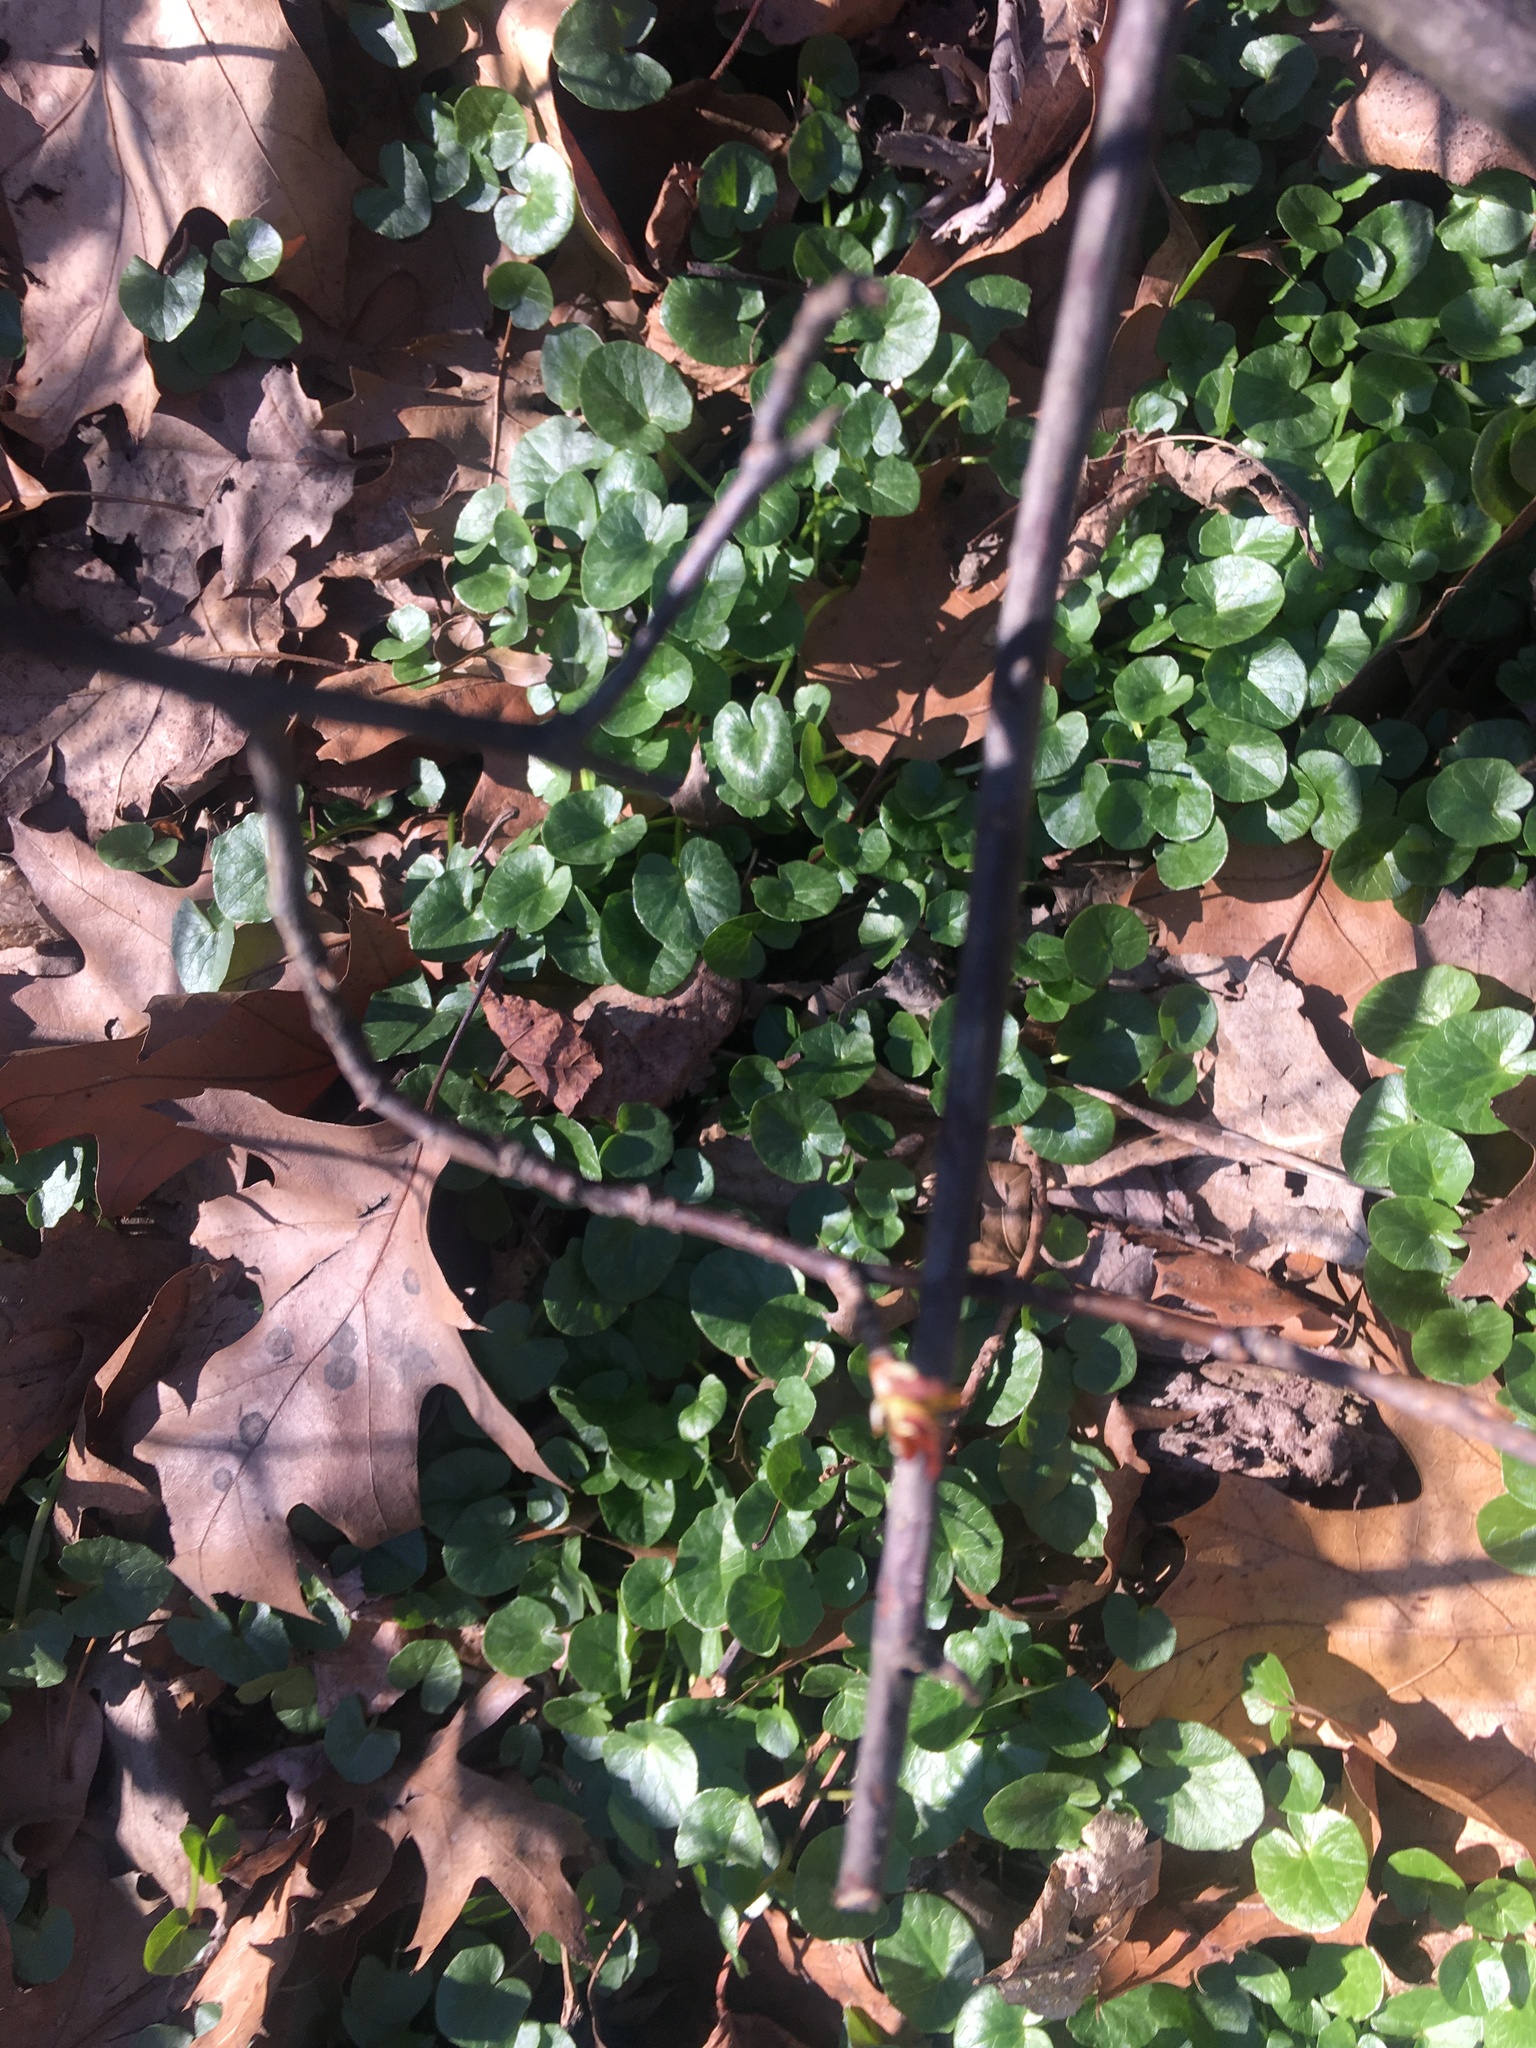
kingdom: Plantae
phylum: Tracheophyta
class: Magnoliopsida
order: Ranunculales
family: Ranunculaceae
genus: Ficaria
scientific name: Ficaria verna
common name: Lesser celandine
